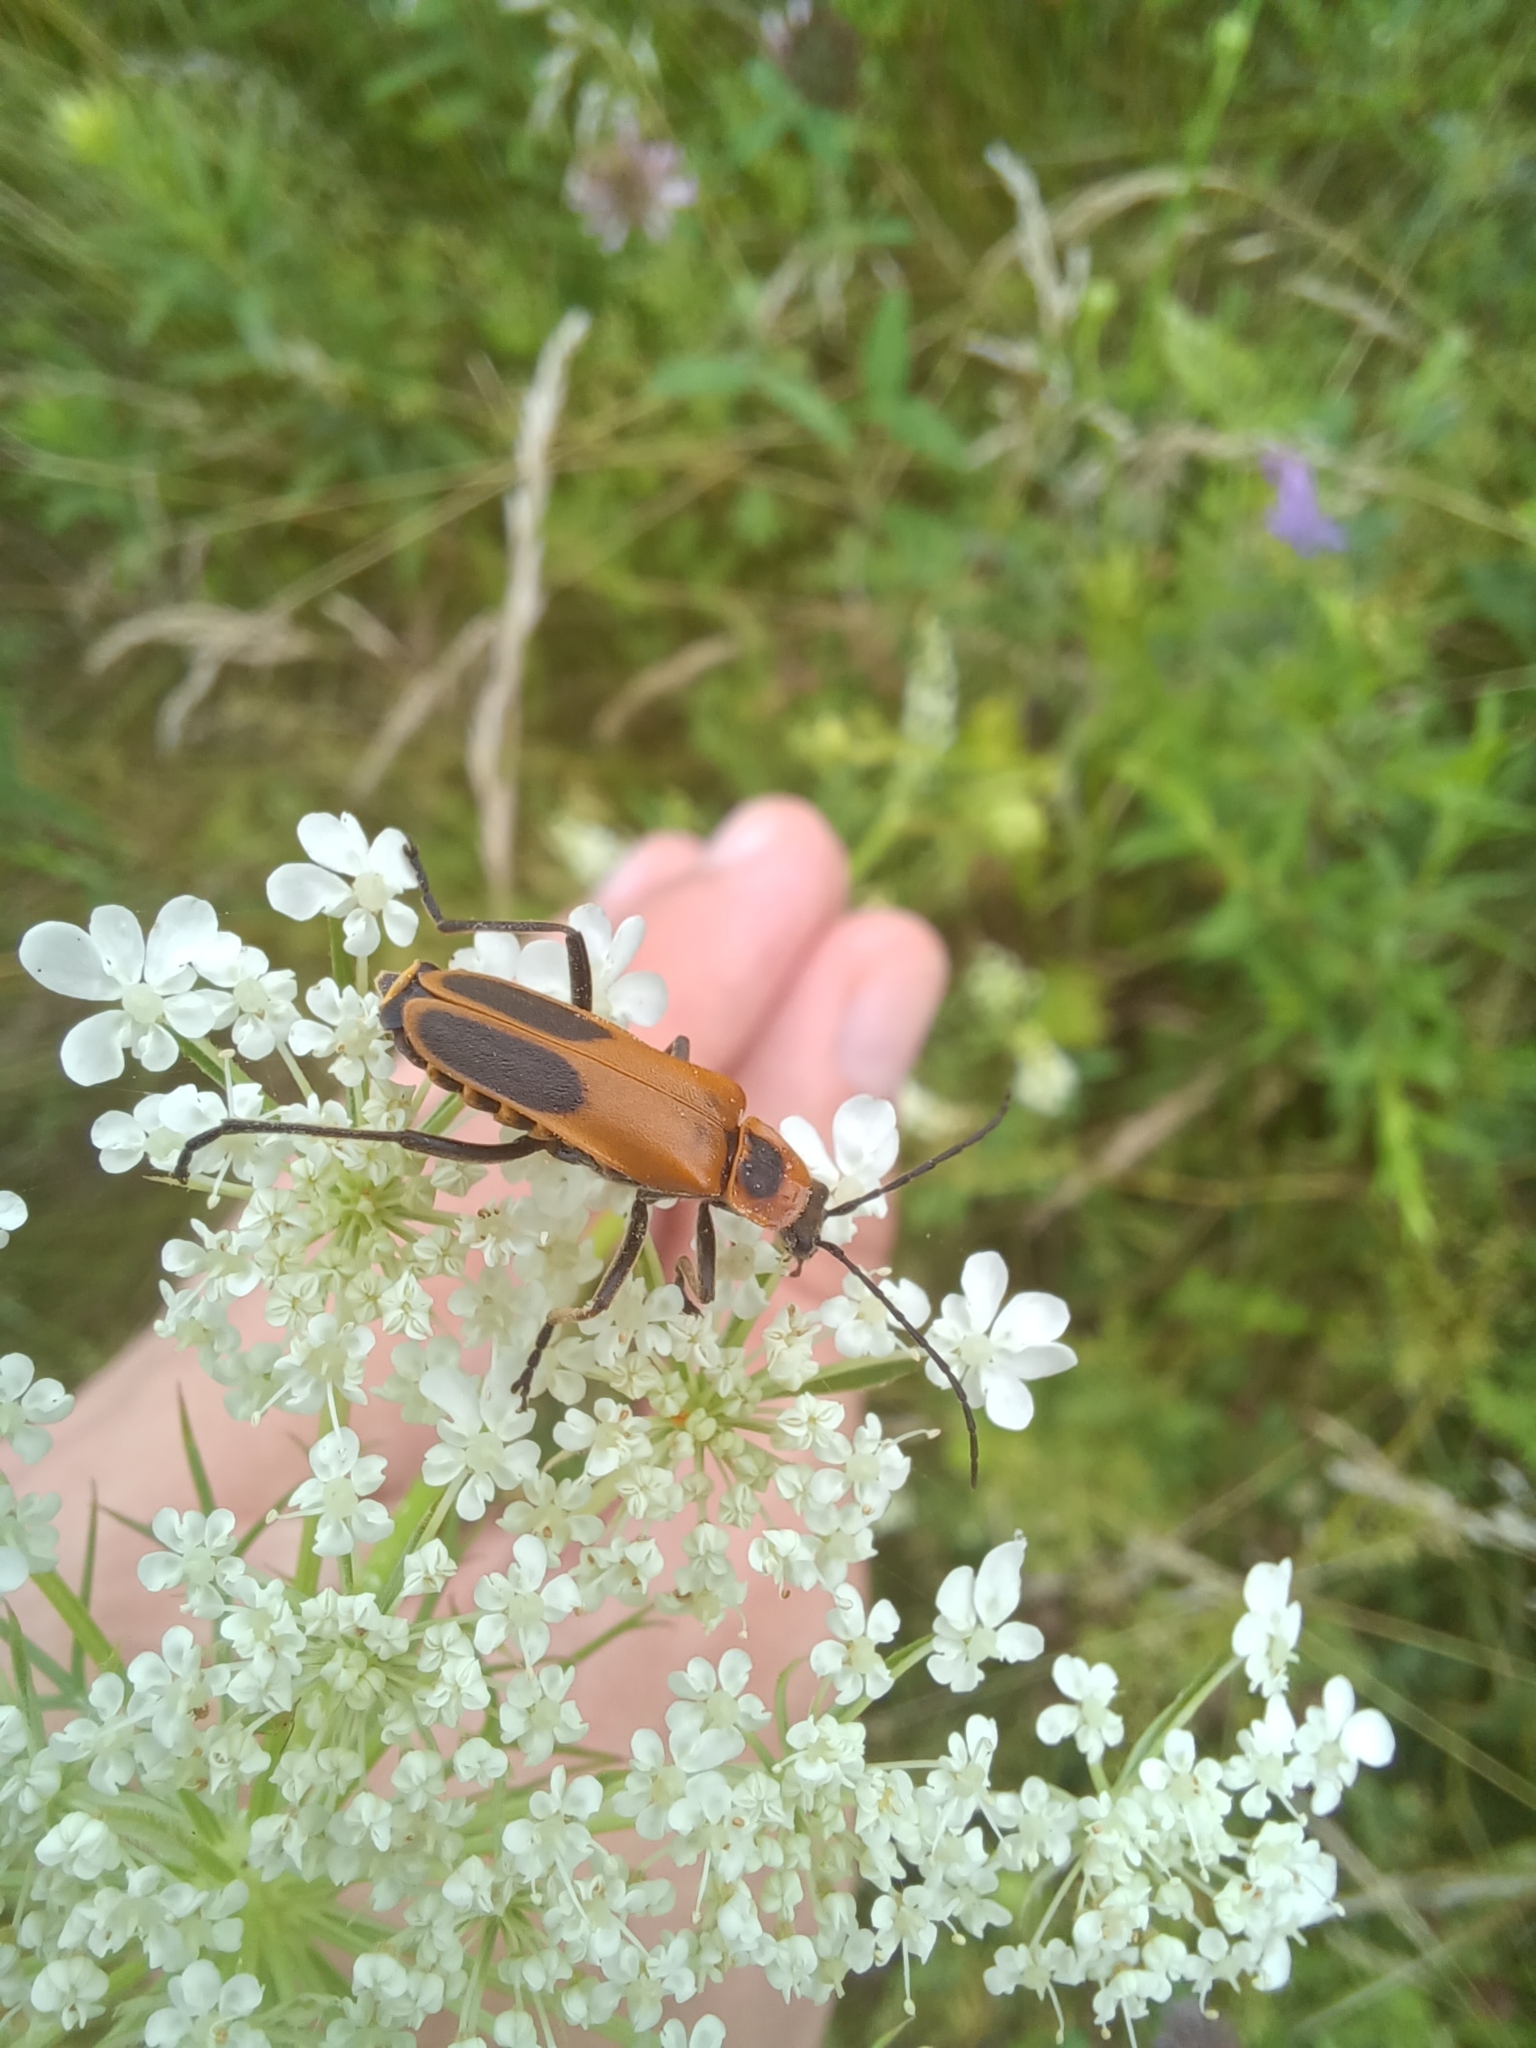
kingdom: Animalia
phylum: Arthropoda
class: Insecta
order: Coleoptera
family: Cantharidae
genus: Chauliognathus
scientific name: Chauliognathus pensylvanicus
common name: Goldenrod soldier beetle
